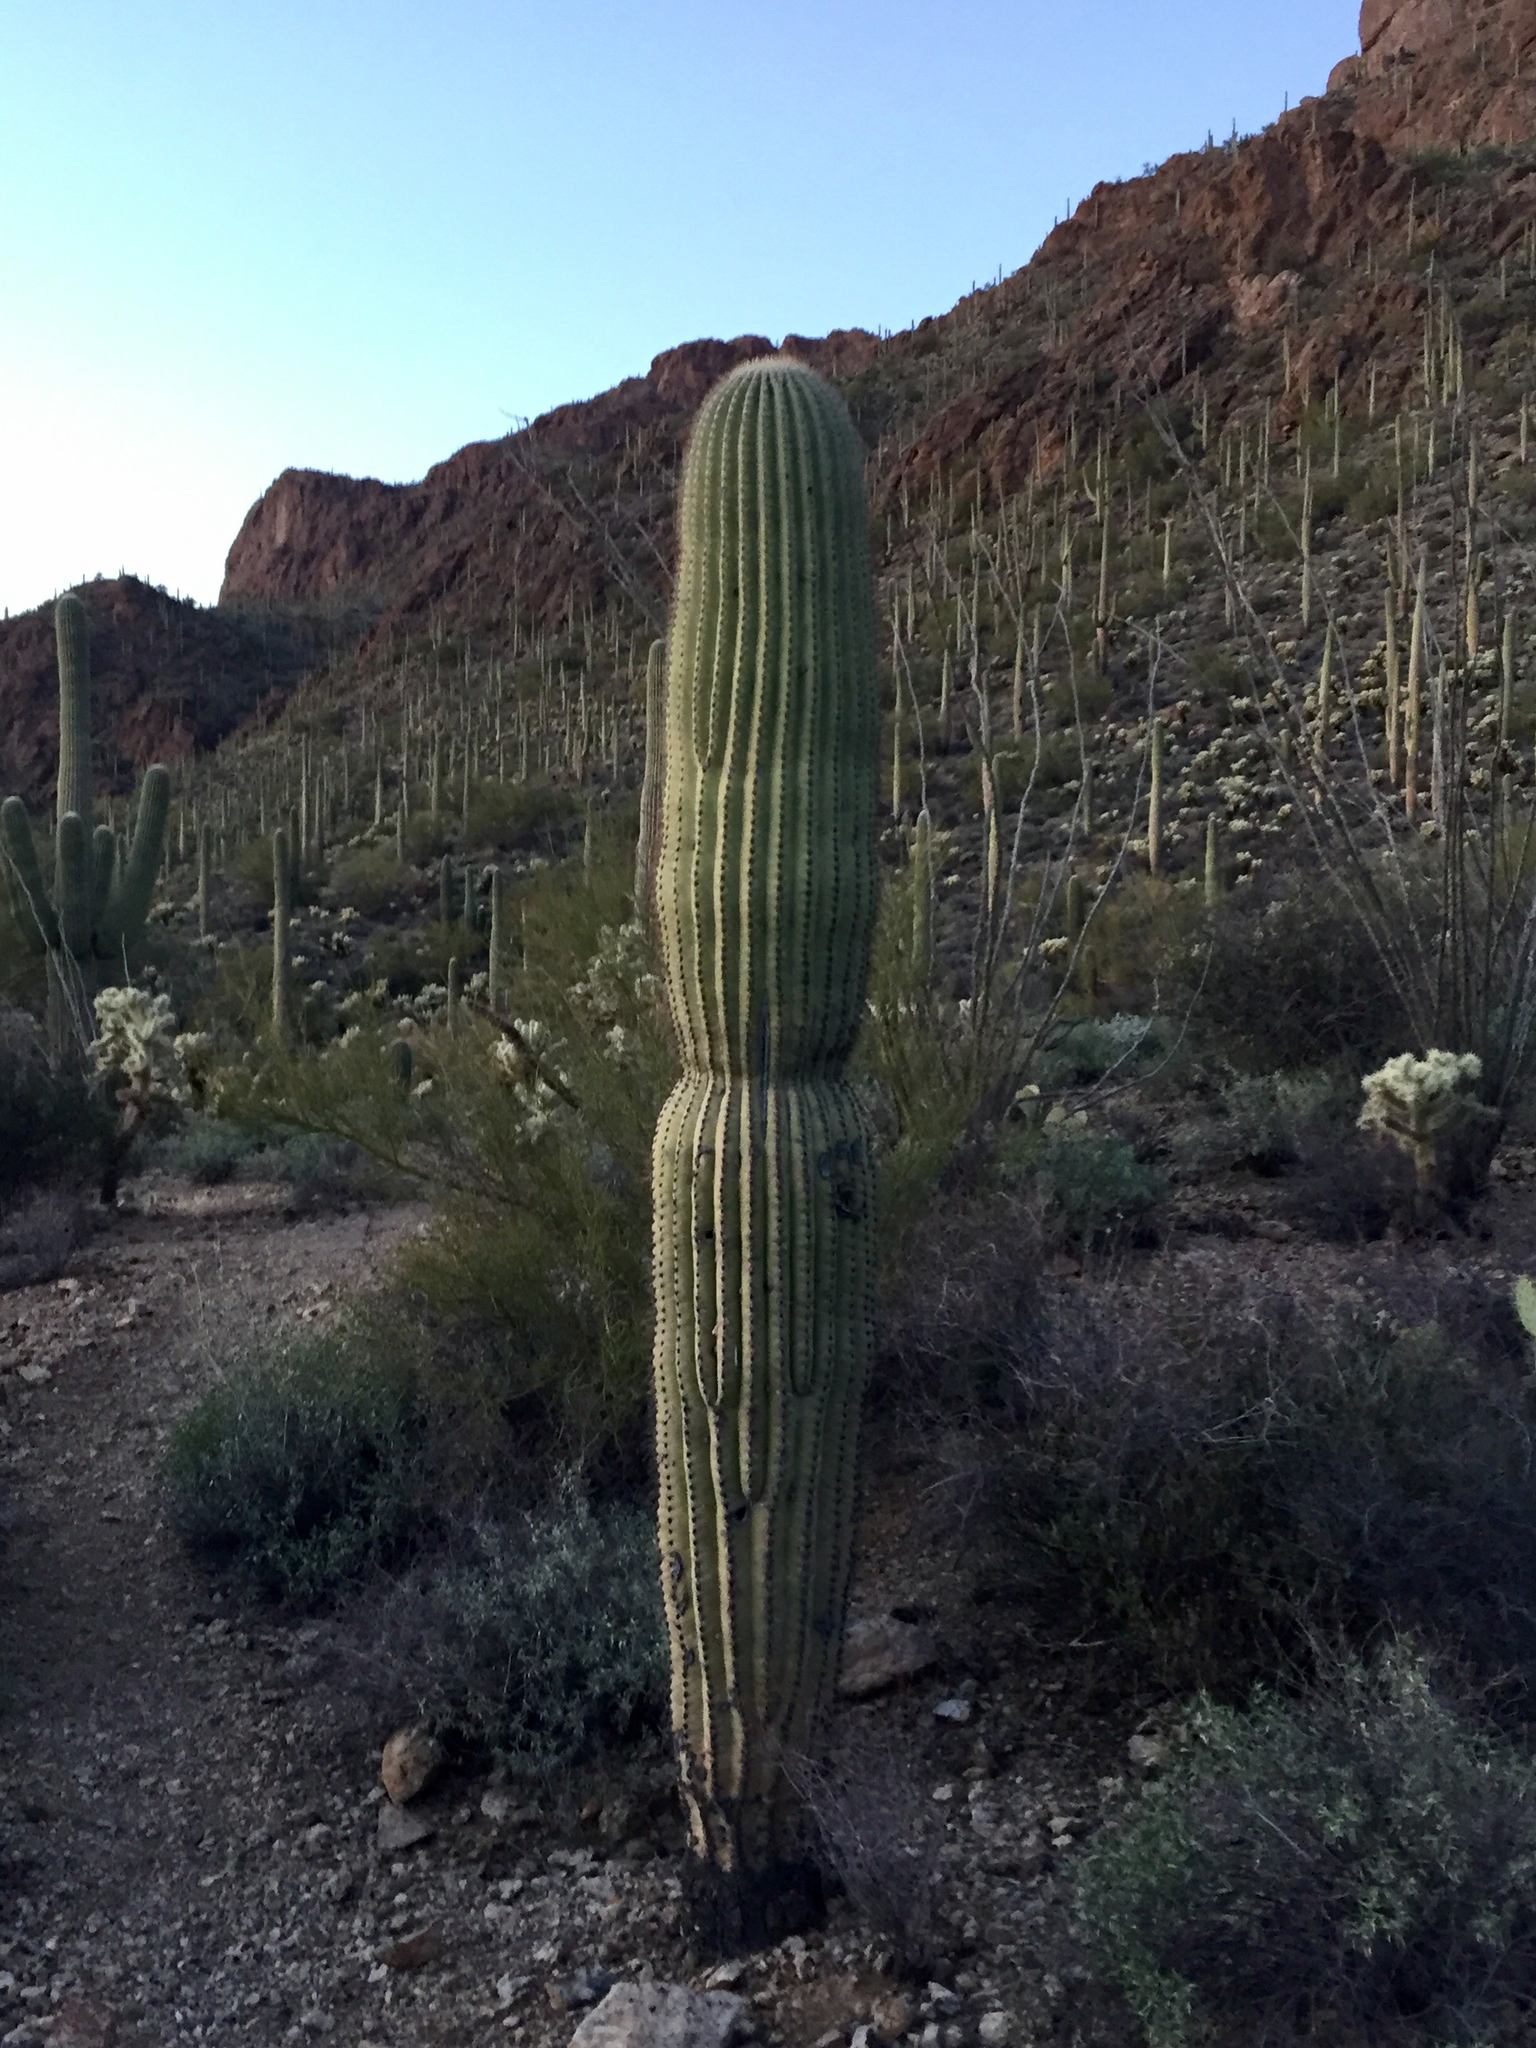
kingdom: Plantae
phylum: Tracheophyta
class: Magnoliopsida
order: Caryophyllales
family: Cactaceae
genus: Carnegiea
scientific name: Carnegiea gigantea
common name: Saguaro
